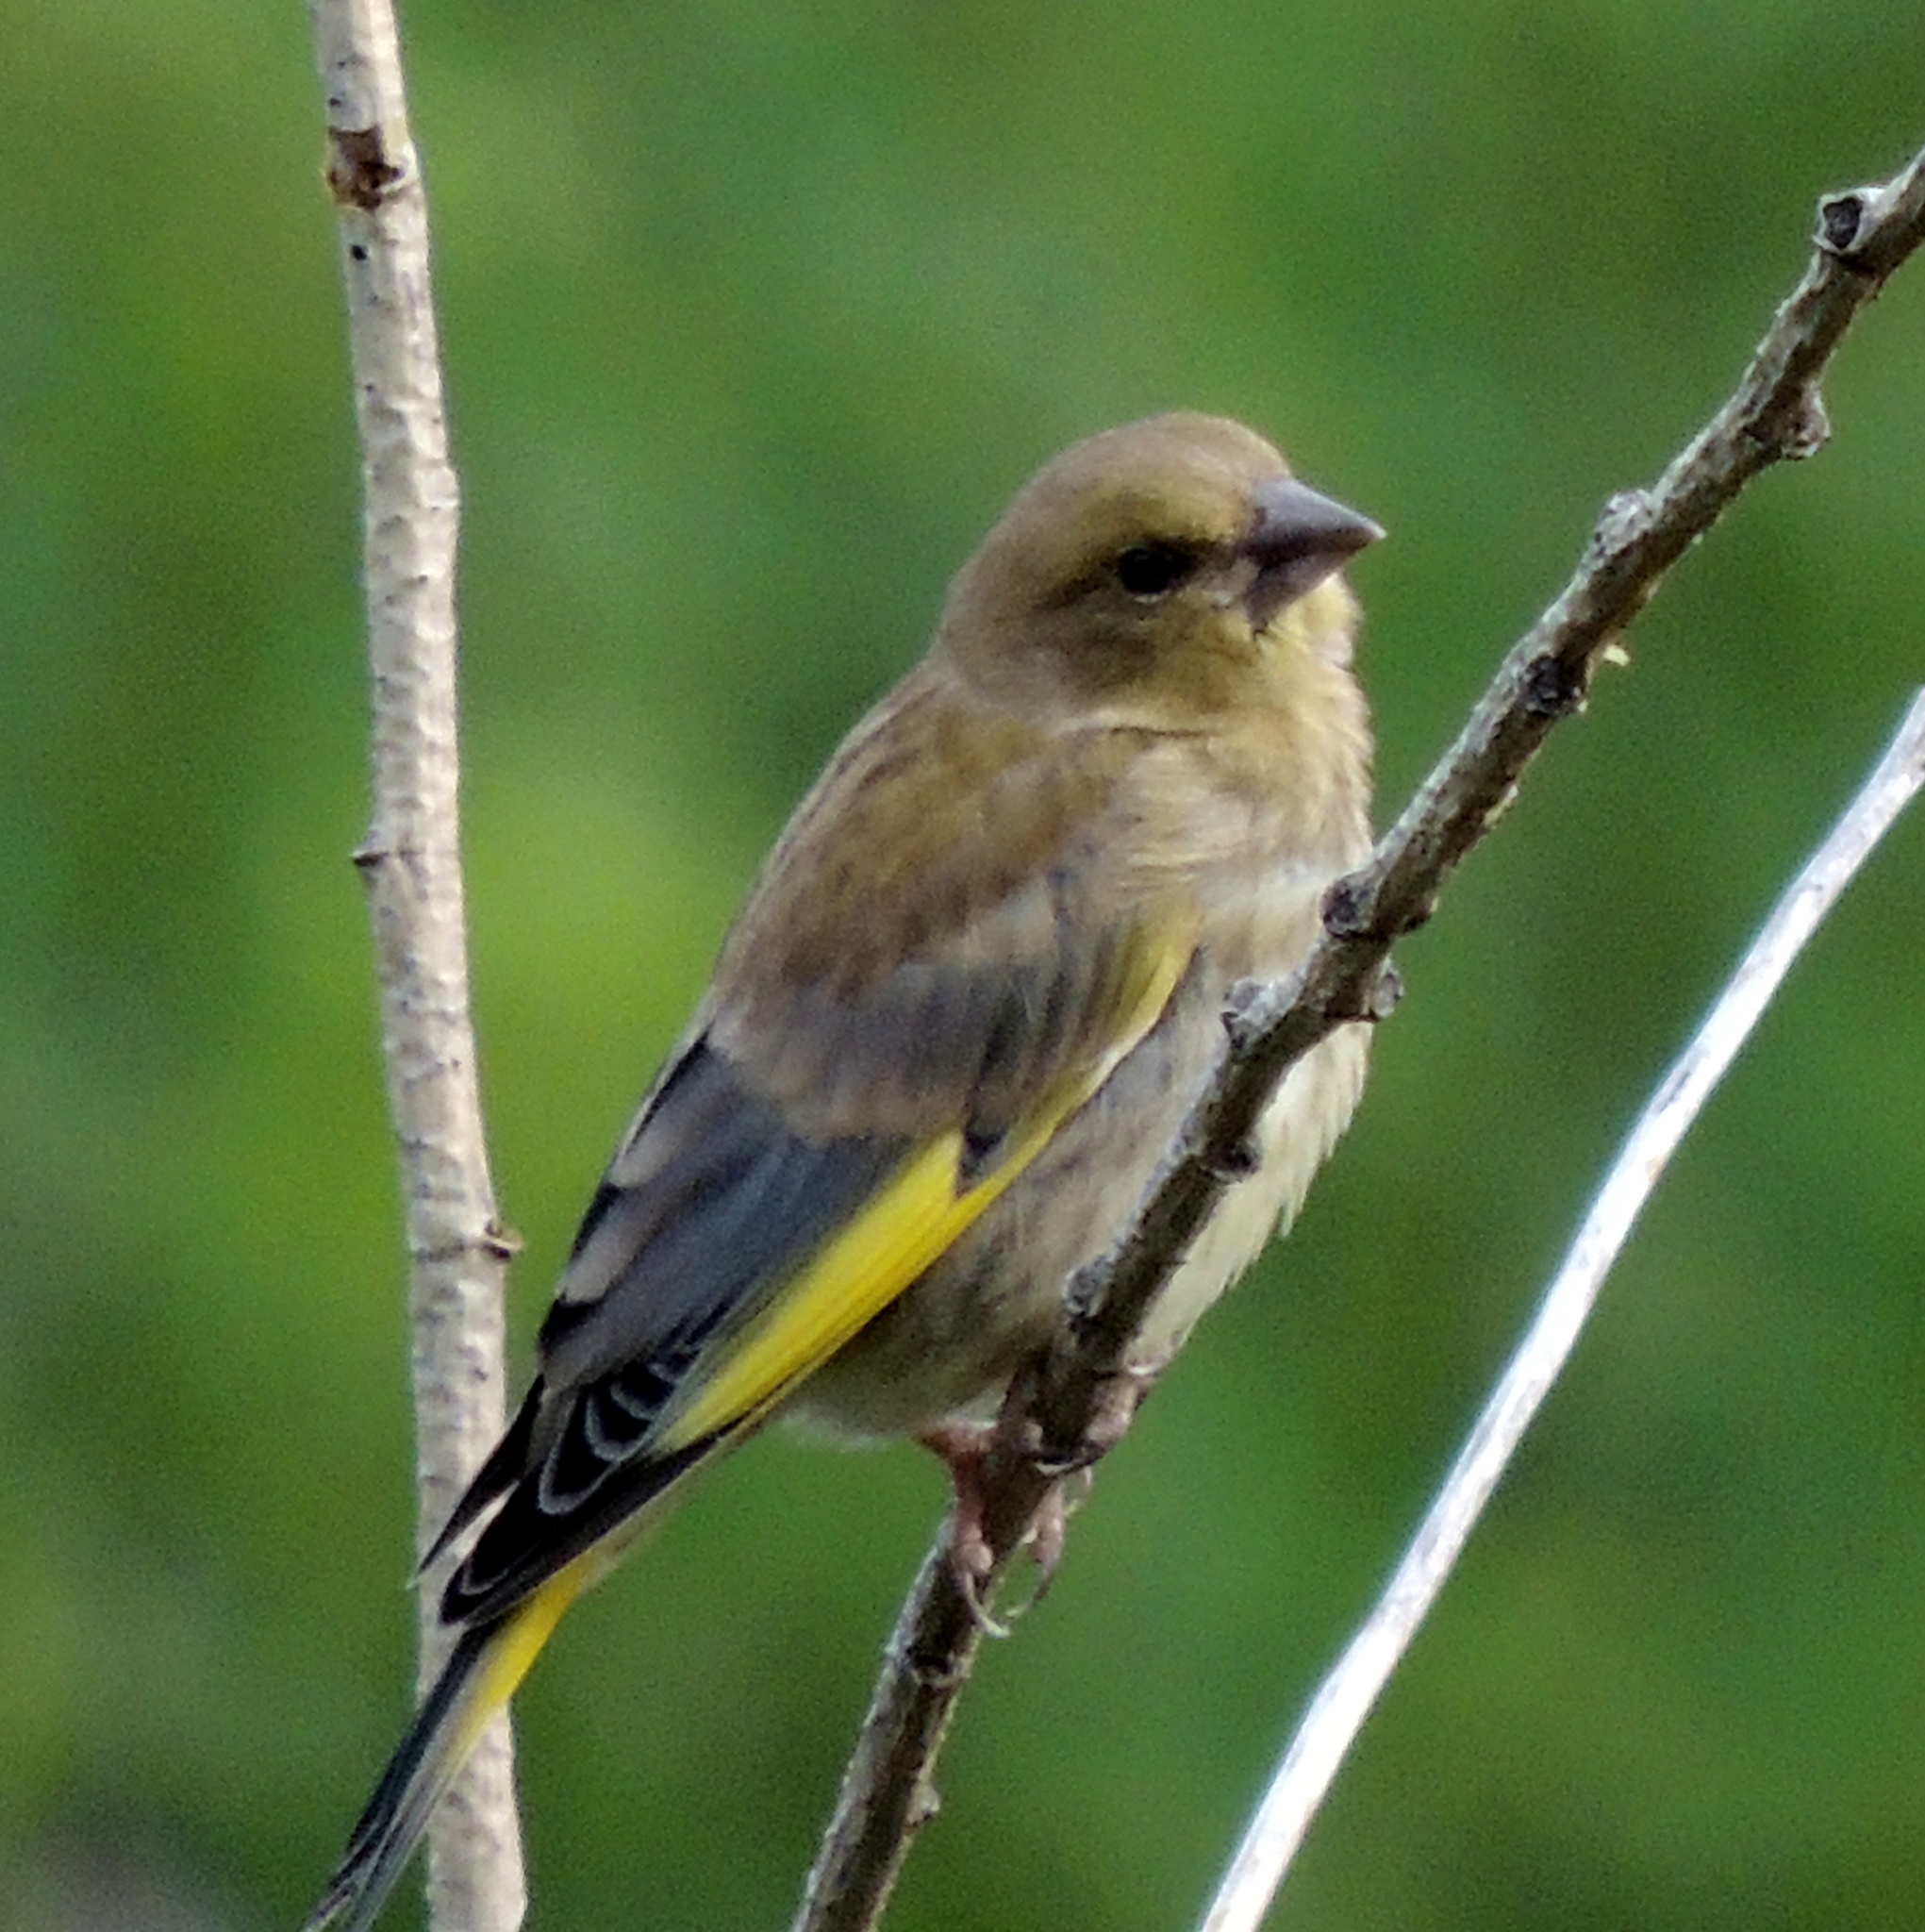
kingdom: Plantae
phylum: Tracheophyta
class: Liliopsida
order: Poales
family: Poaceae
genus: Chloris
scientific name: Chloris chloris
